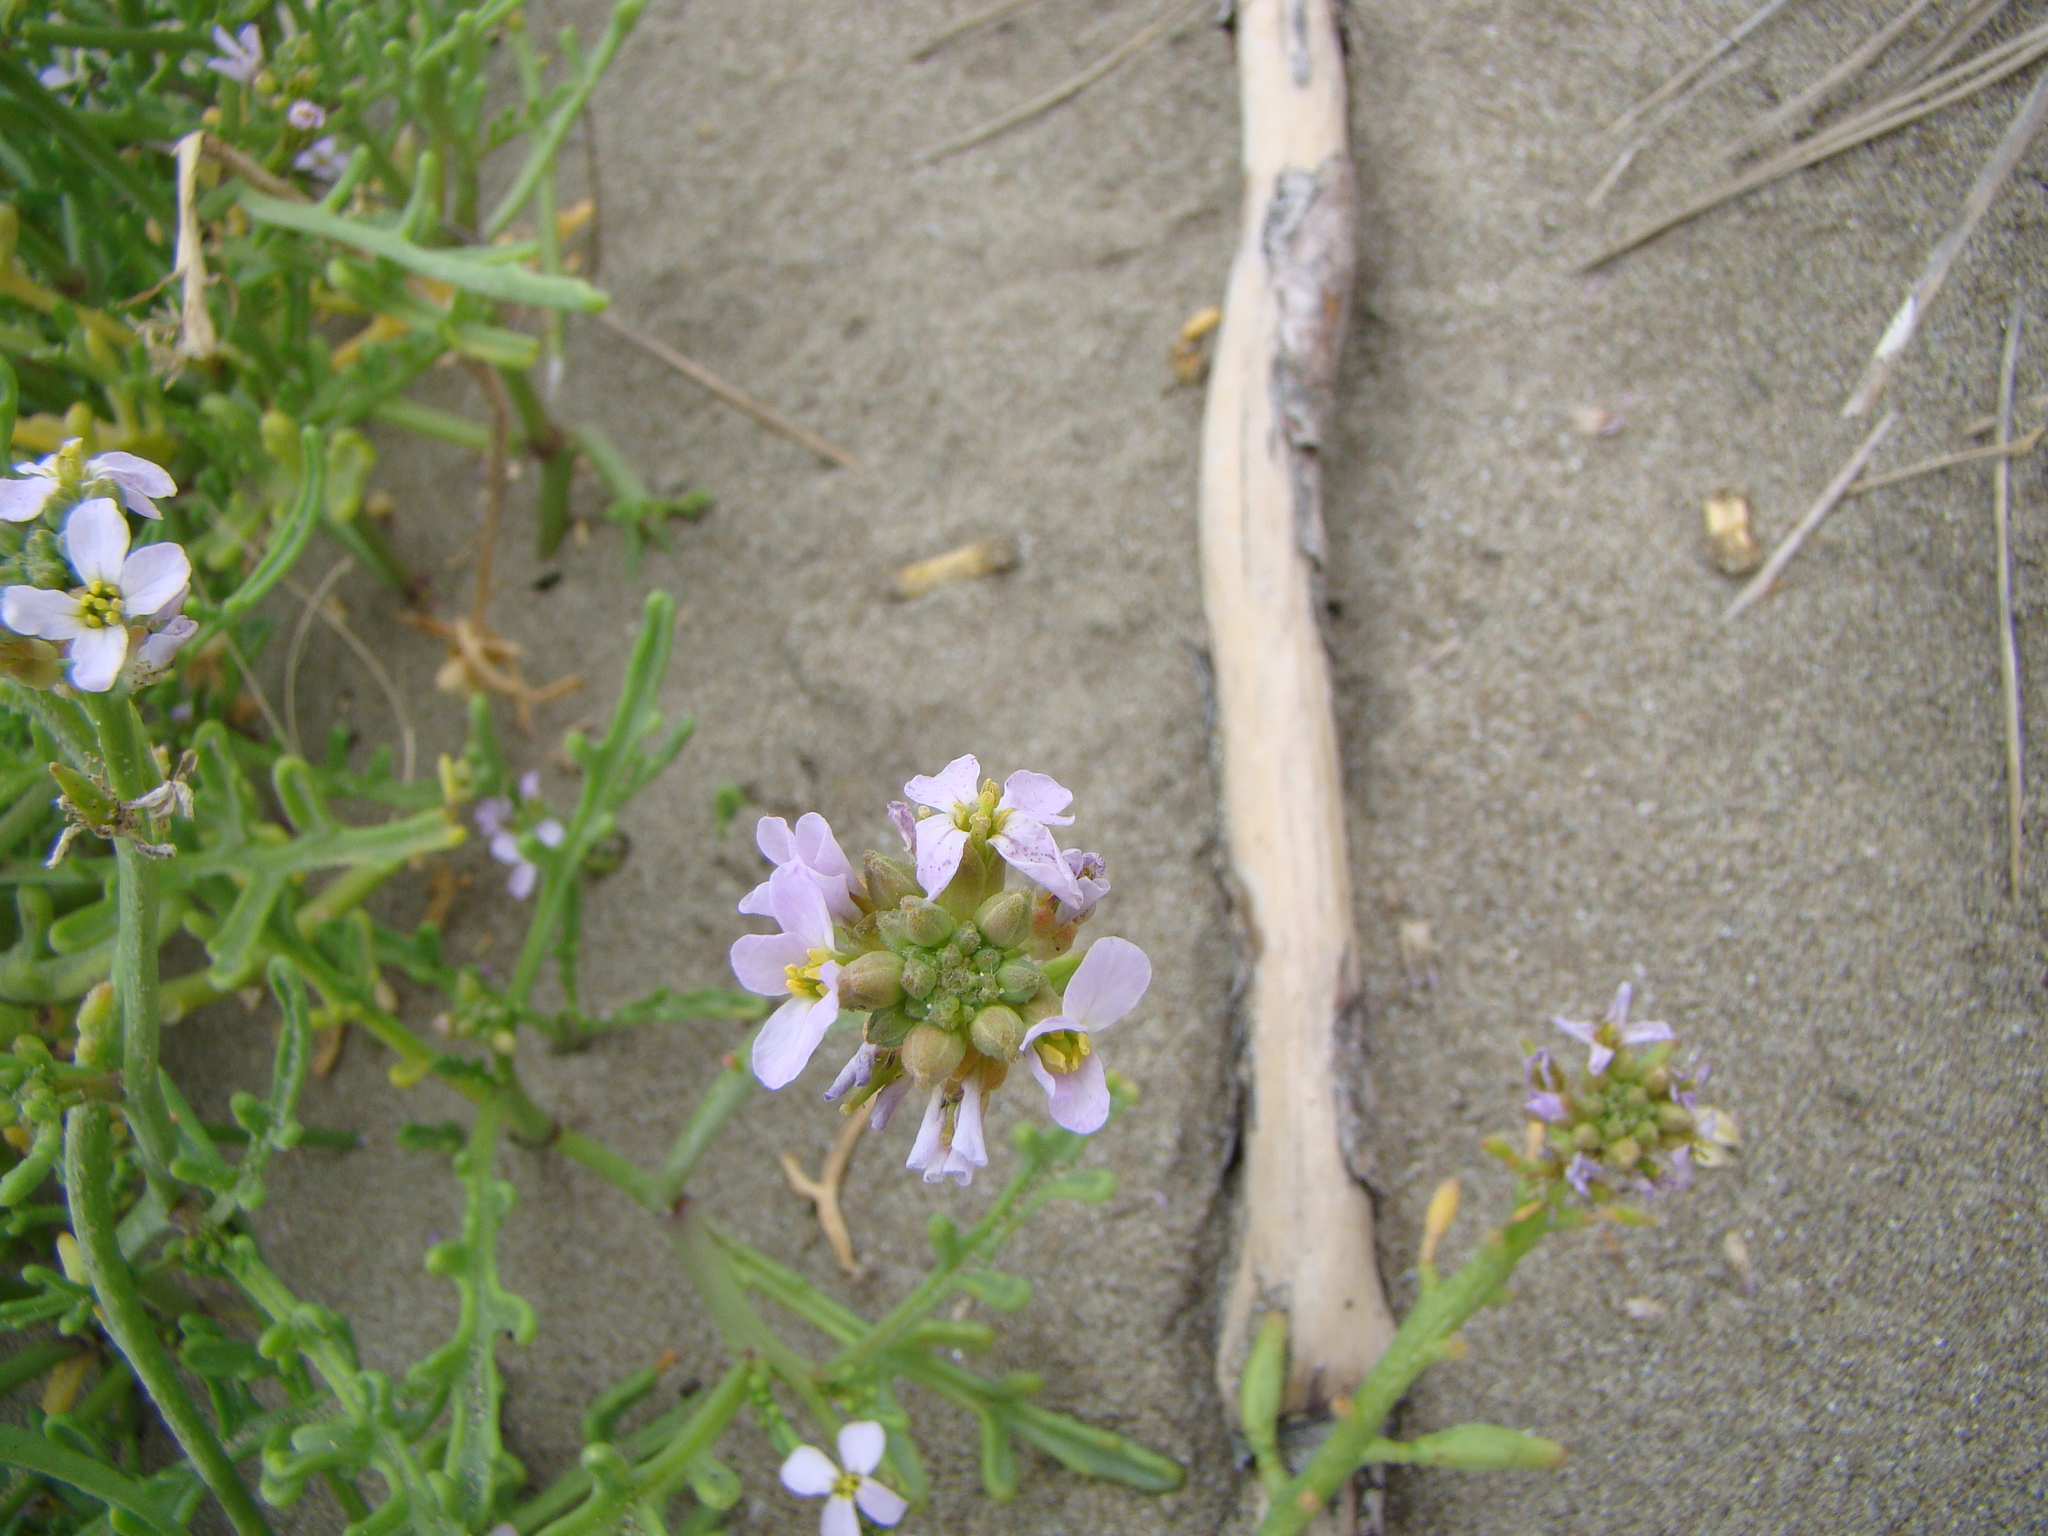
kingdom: Plantae
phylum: Tracheophyta
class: Magnoliopsida
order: Brassicales
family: Brassicaceae
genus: Cakile
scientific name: Cakile maritima
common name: Sea rocket
